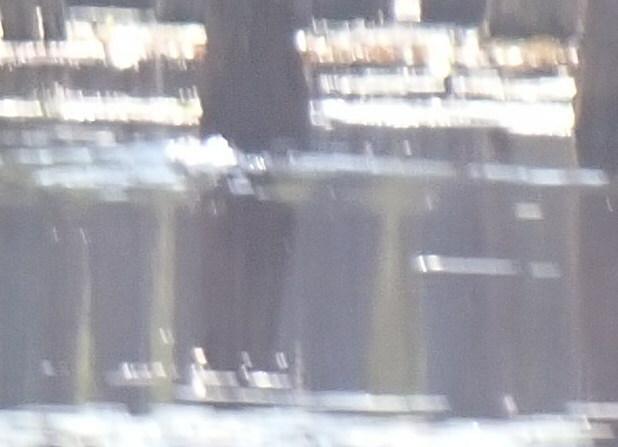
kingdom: Animalia
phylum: Chordata
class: Crocodylia
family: Alligatoridae
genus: Alligator
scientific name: Alligator mississippiensis
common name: American alligator
